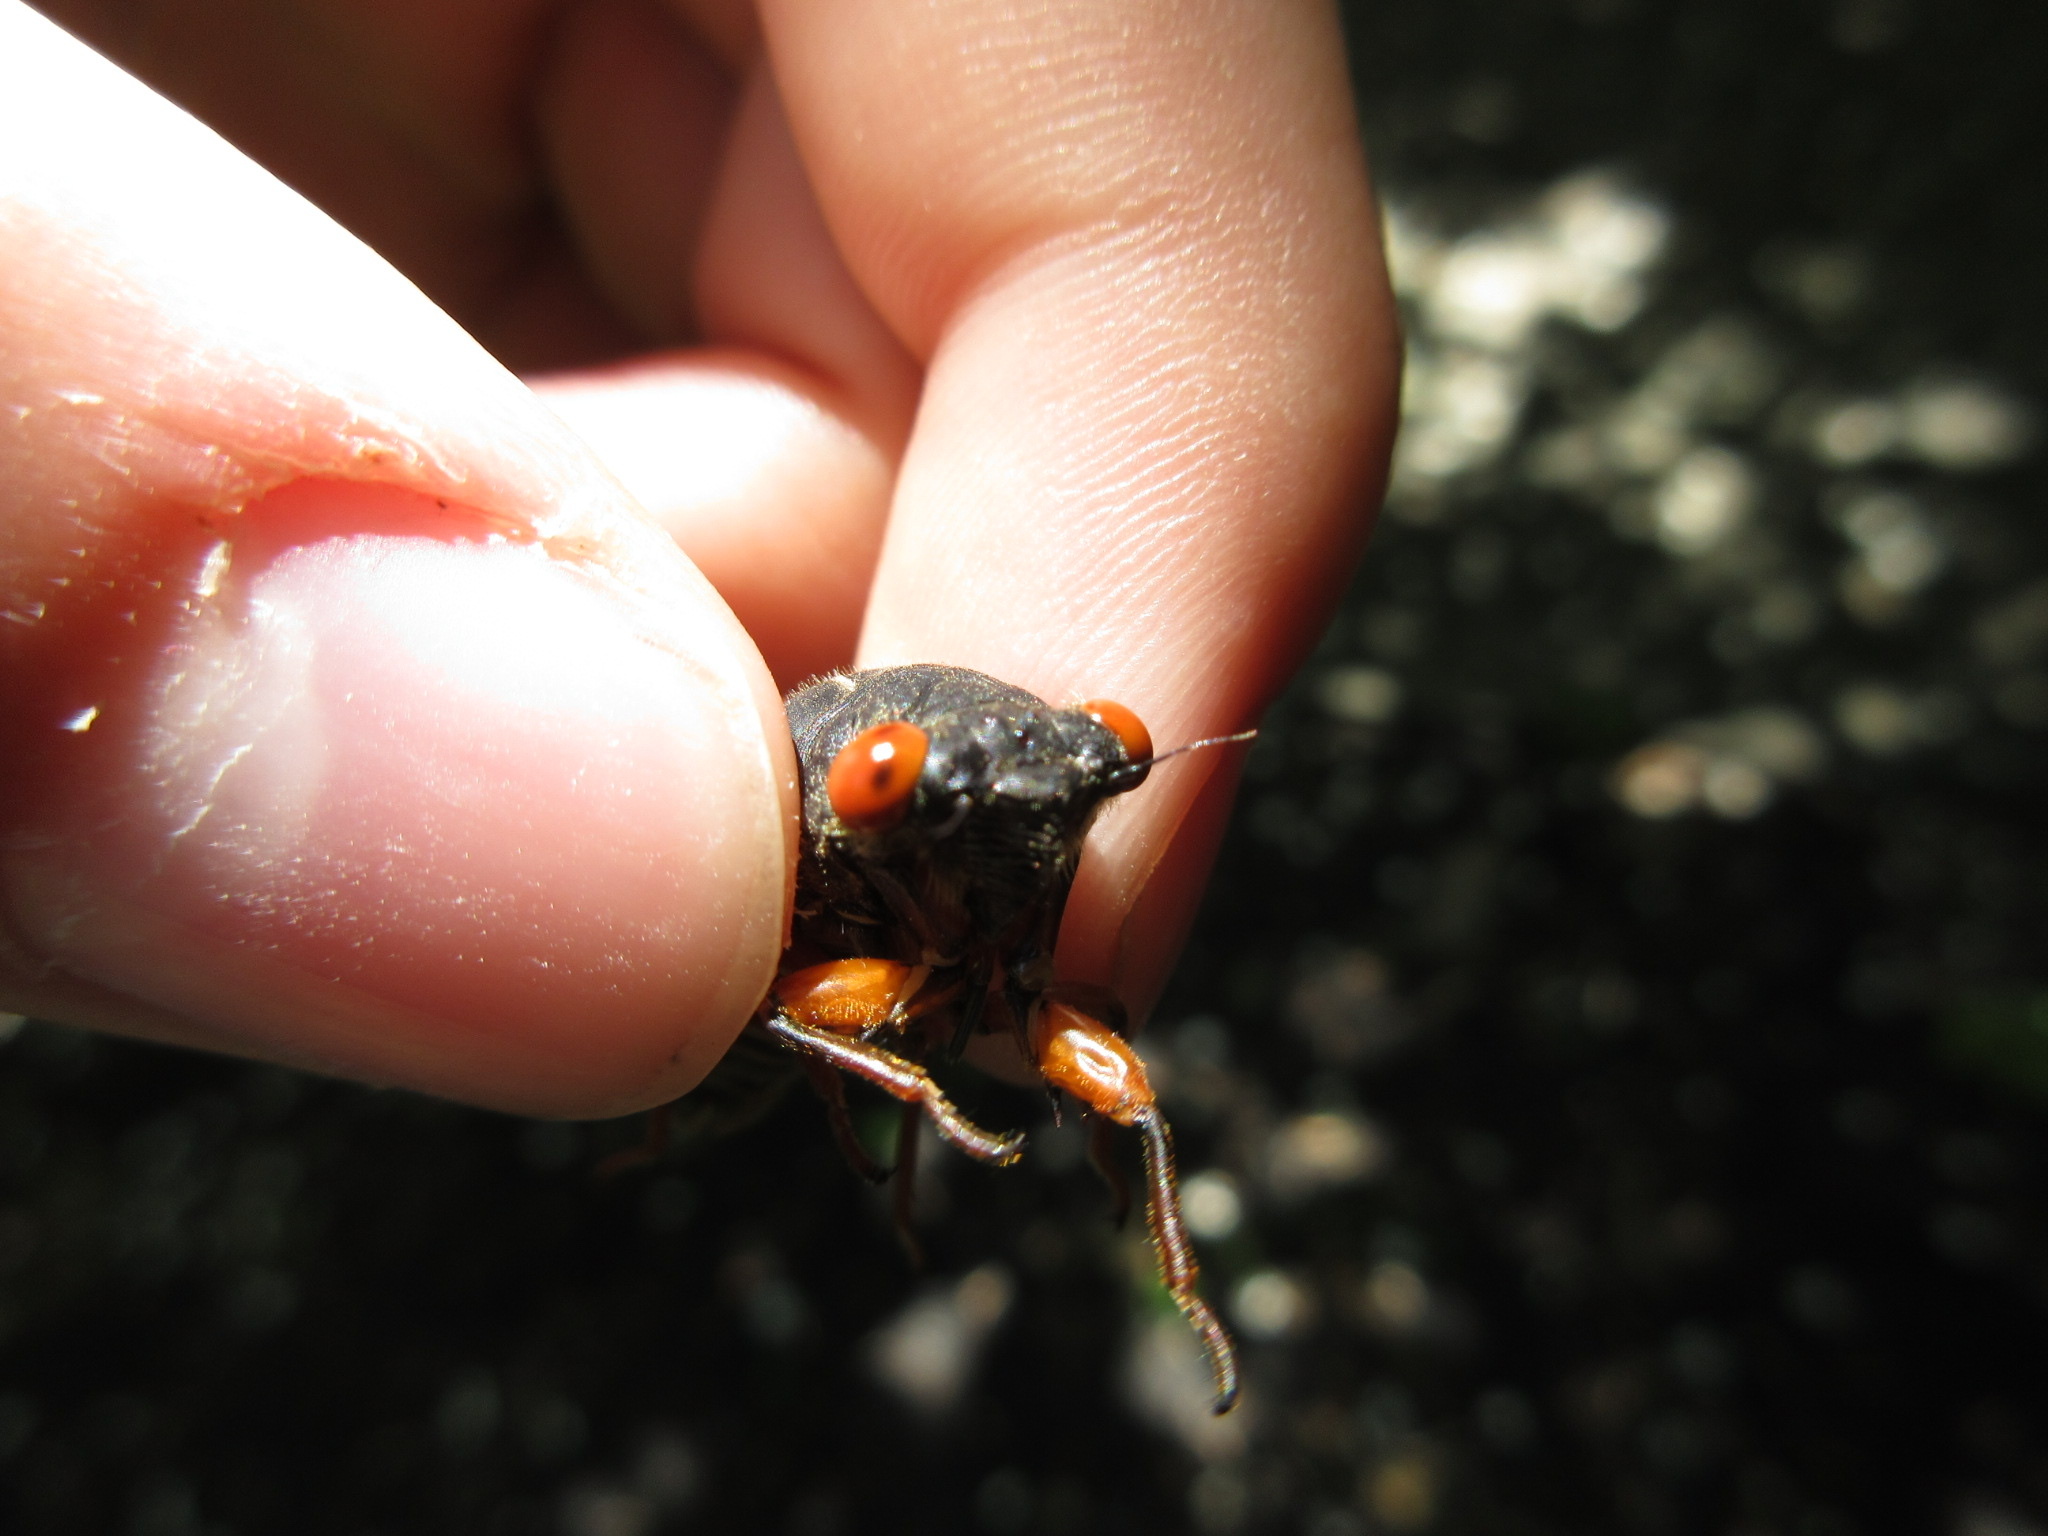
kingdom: Animalia
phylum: Arthropoda
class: Insecta
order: Hemiptera
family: Cicadidae
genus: Magicicada
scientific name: Magicicada septendecula
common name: Decula periodical cicada
